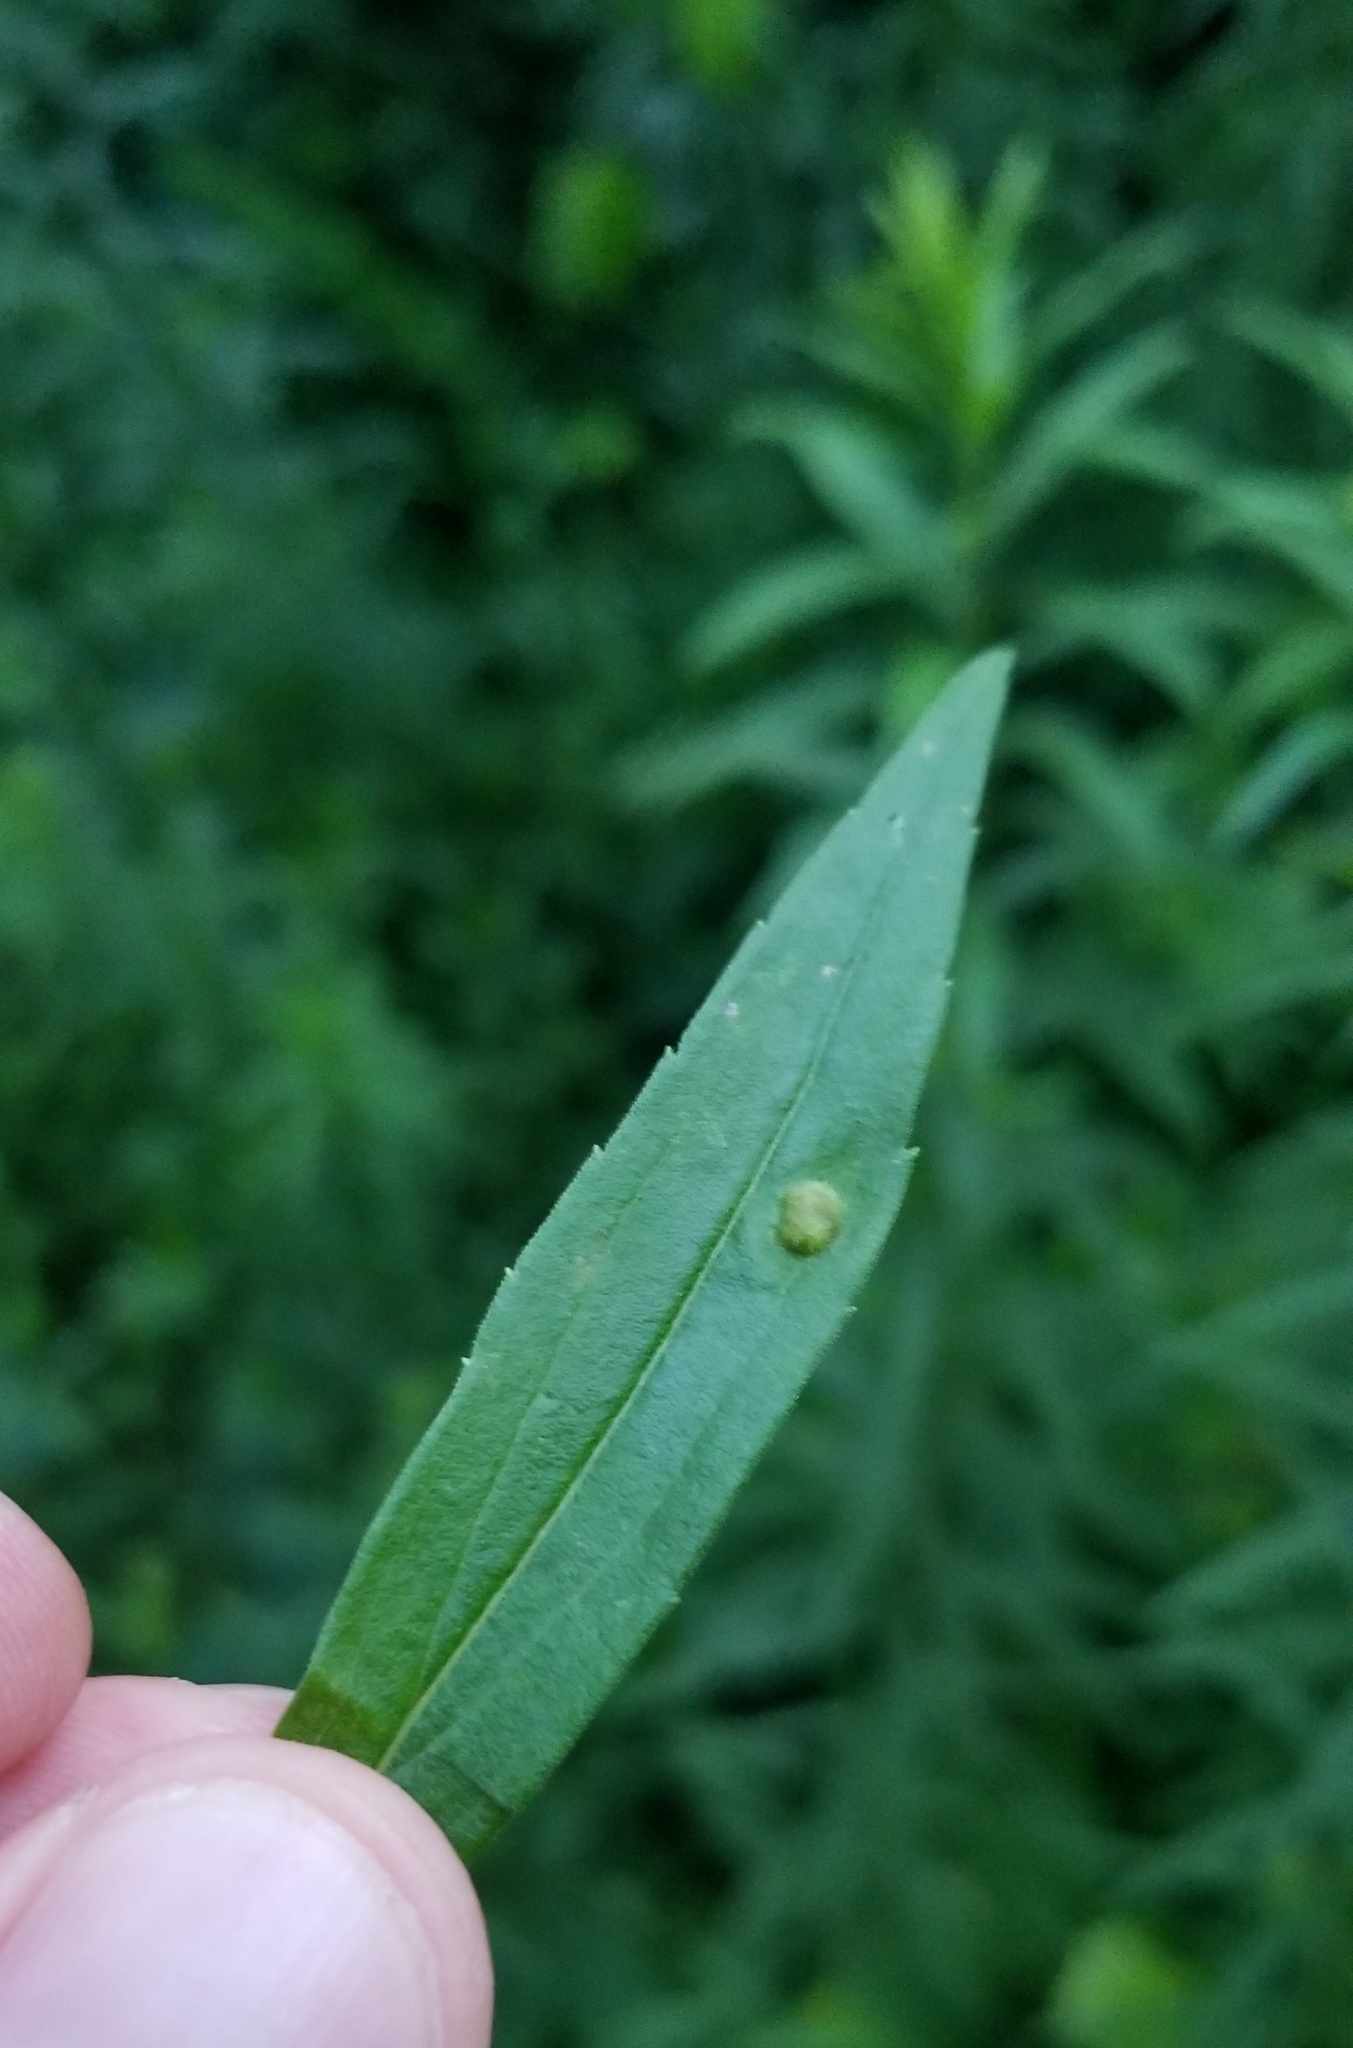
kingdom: Animalia
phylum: Arthropoda
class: Insecta
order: Diptera
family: Cecidomyiidae
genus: Asphondylia
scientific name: Asphondylia solidaginis
